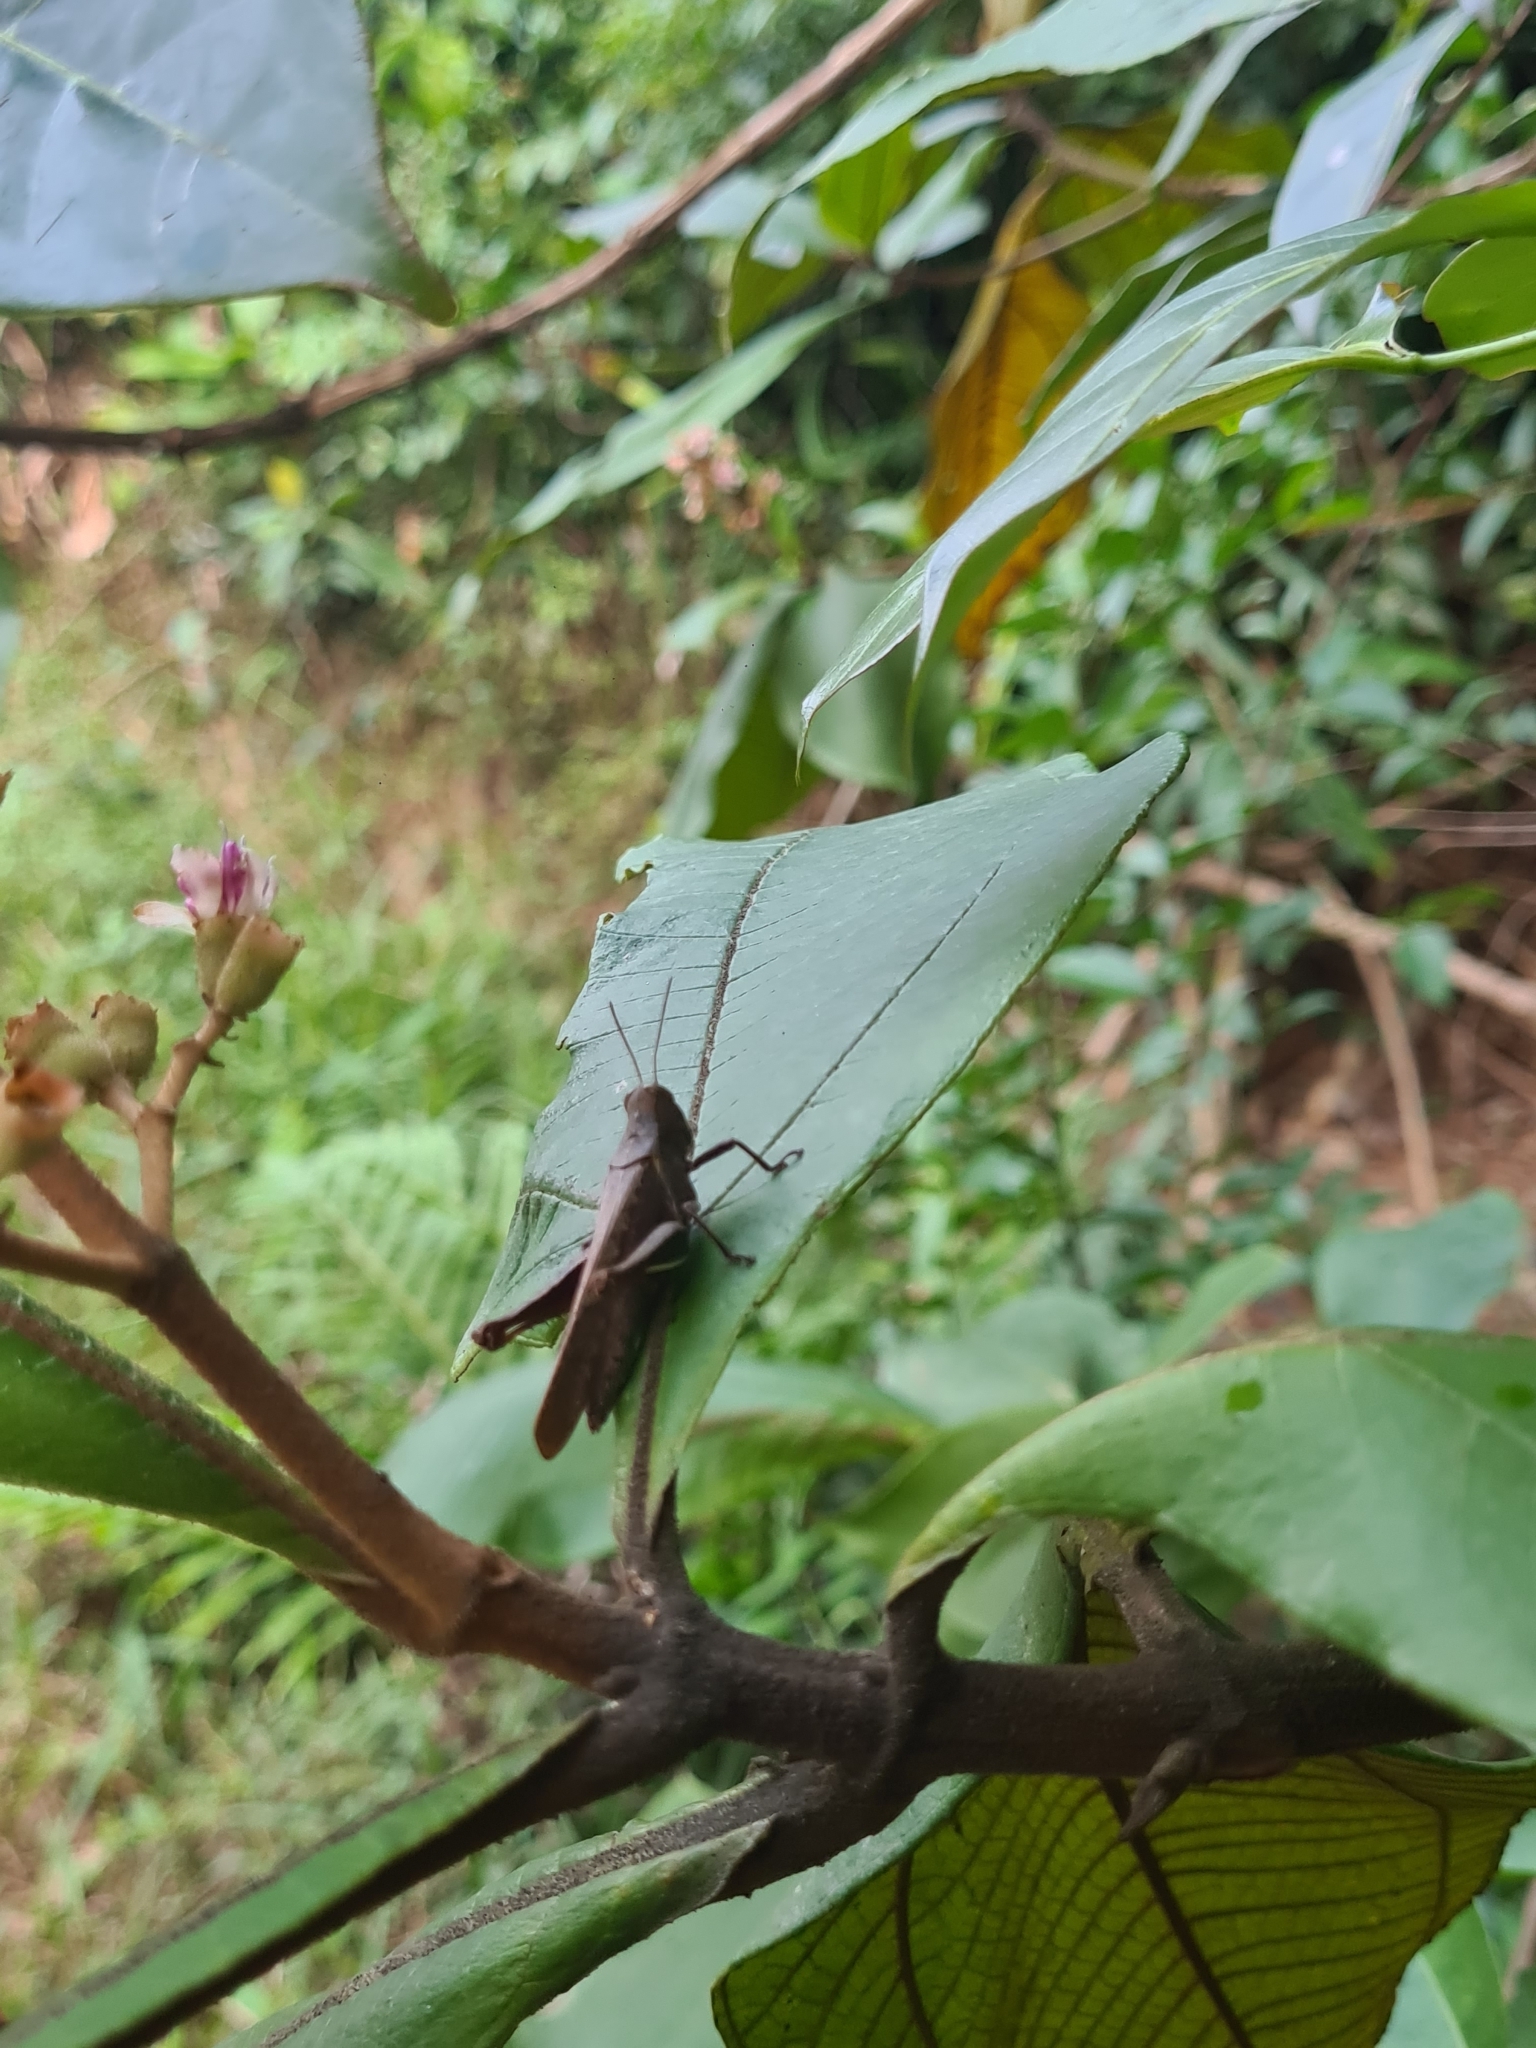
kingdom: Animalia
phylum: Arthropoda
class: Insecta
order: Orthoptera
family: Acrididae
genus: Abracris
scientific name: Abracris flavolineata
